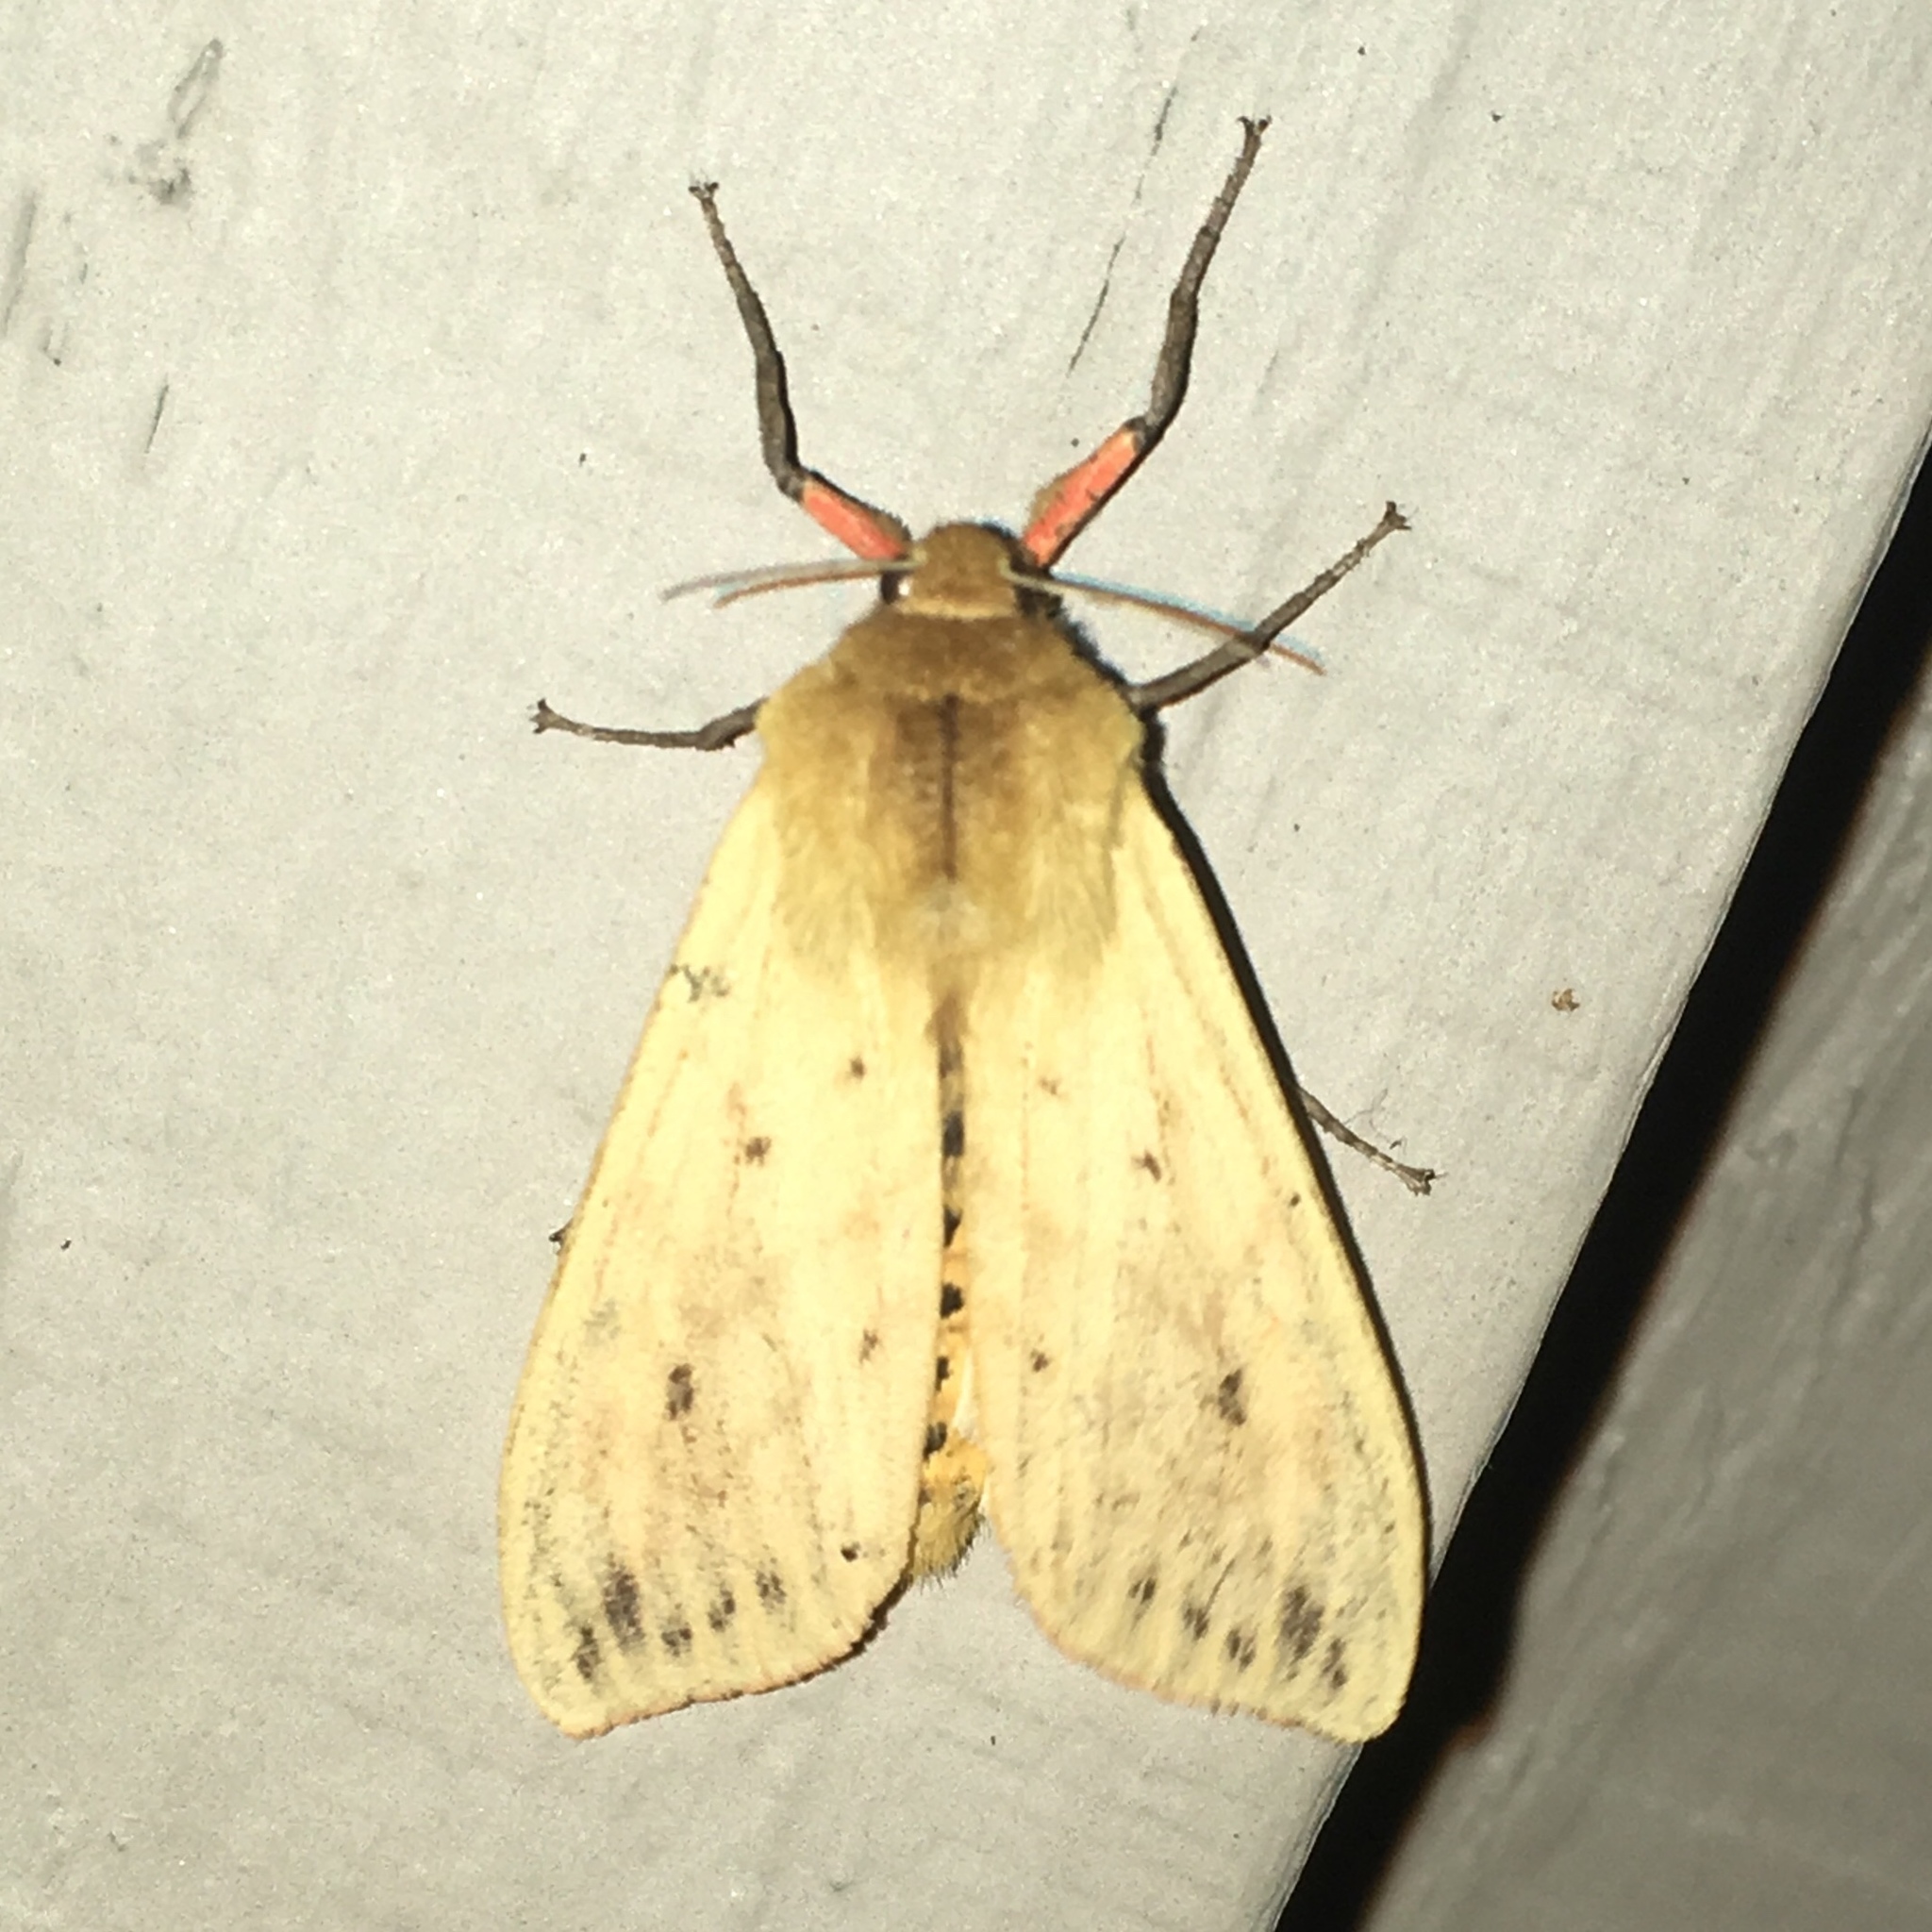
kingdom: Animalia
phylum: Arthropoda
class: Insecta
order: Lepidoptera
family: Erebidae
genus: Pyrrharctia
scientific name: Pyrrharctia isabella
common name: Isabella tiger moth
